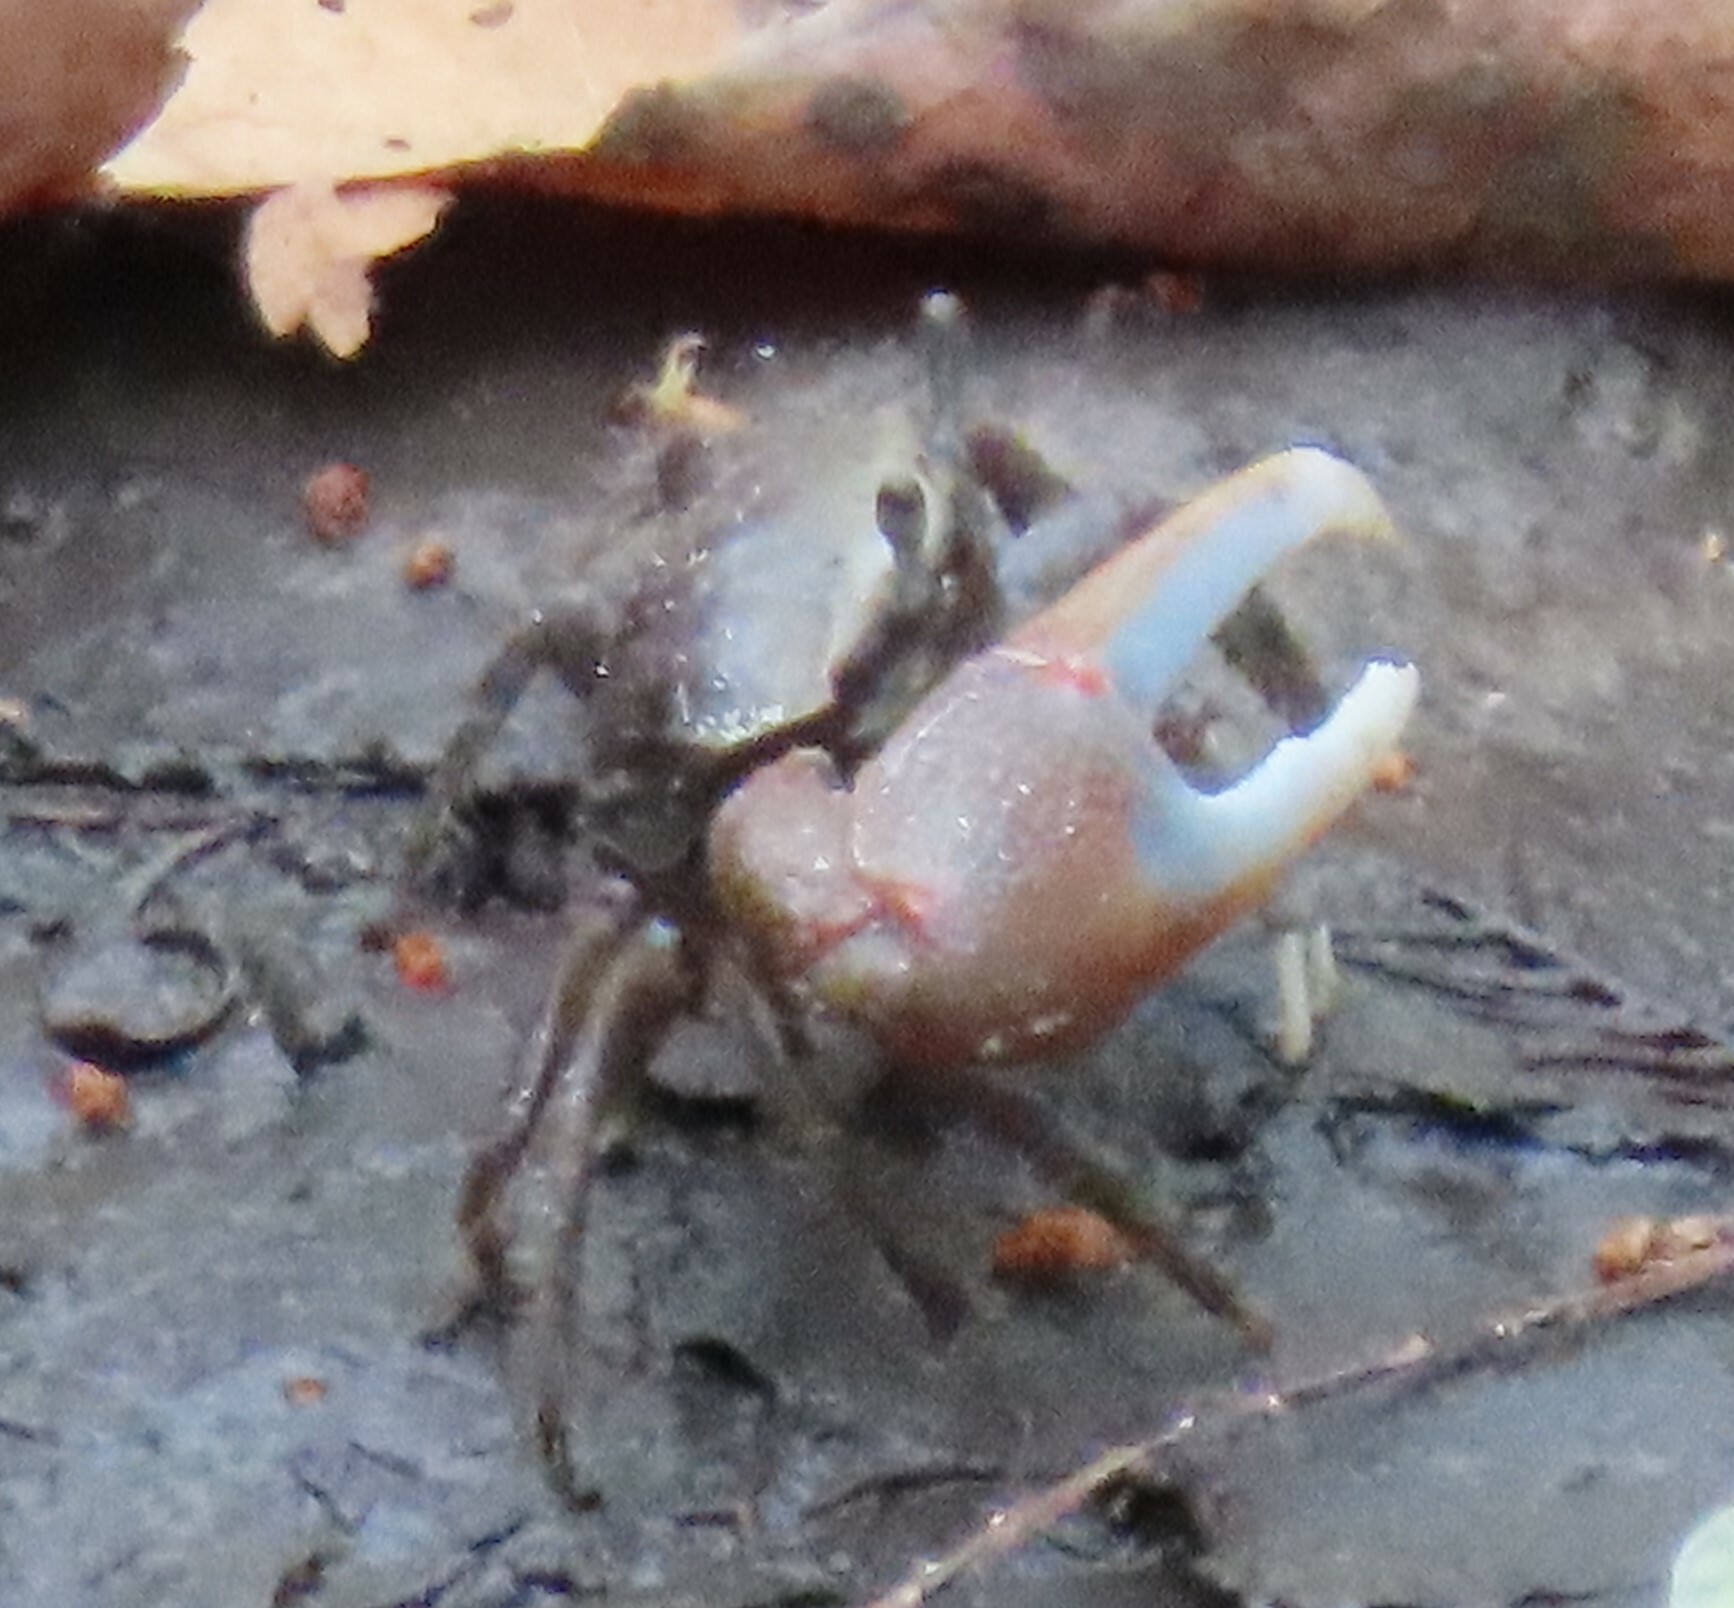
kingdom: Animalia
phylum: Arthropoda
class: Malacostraca
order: Decapoda
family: Ocypodidae
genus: Minuca
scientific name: Minuca minax
